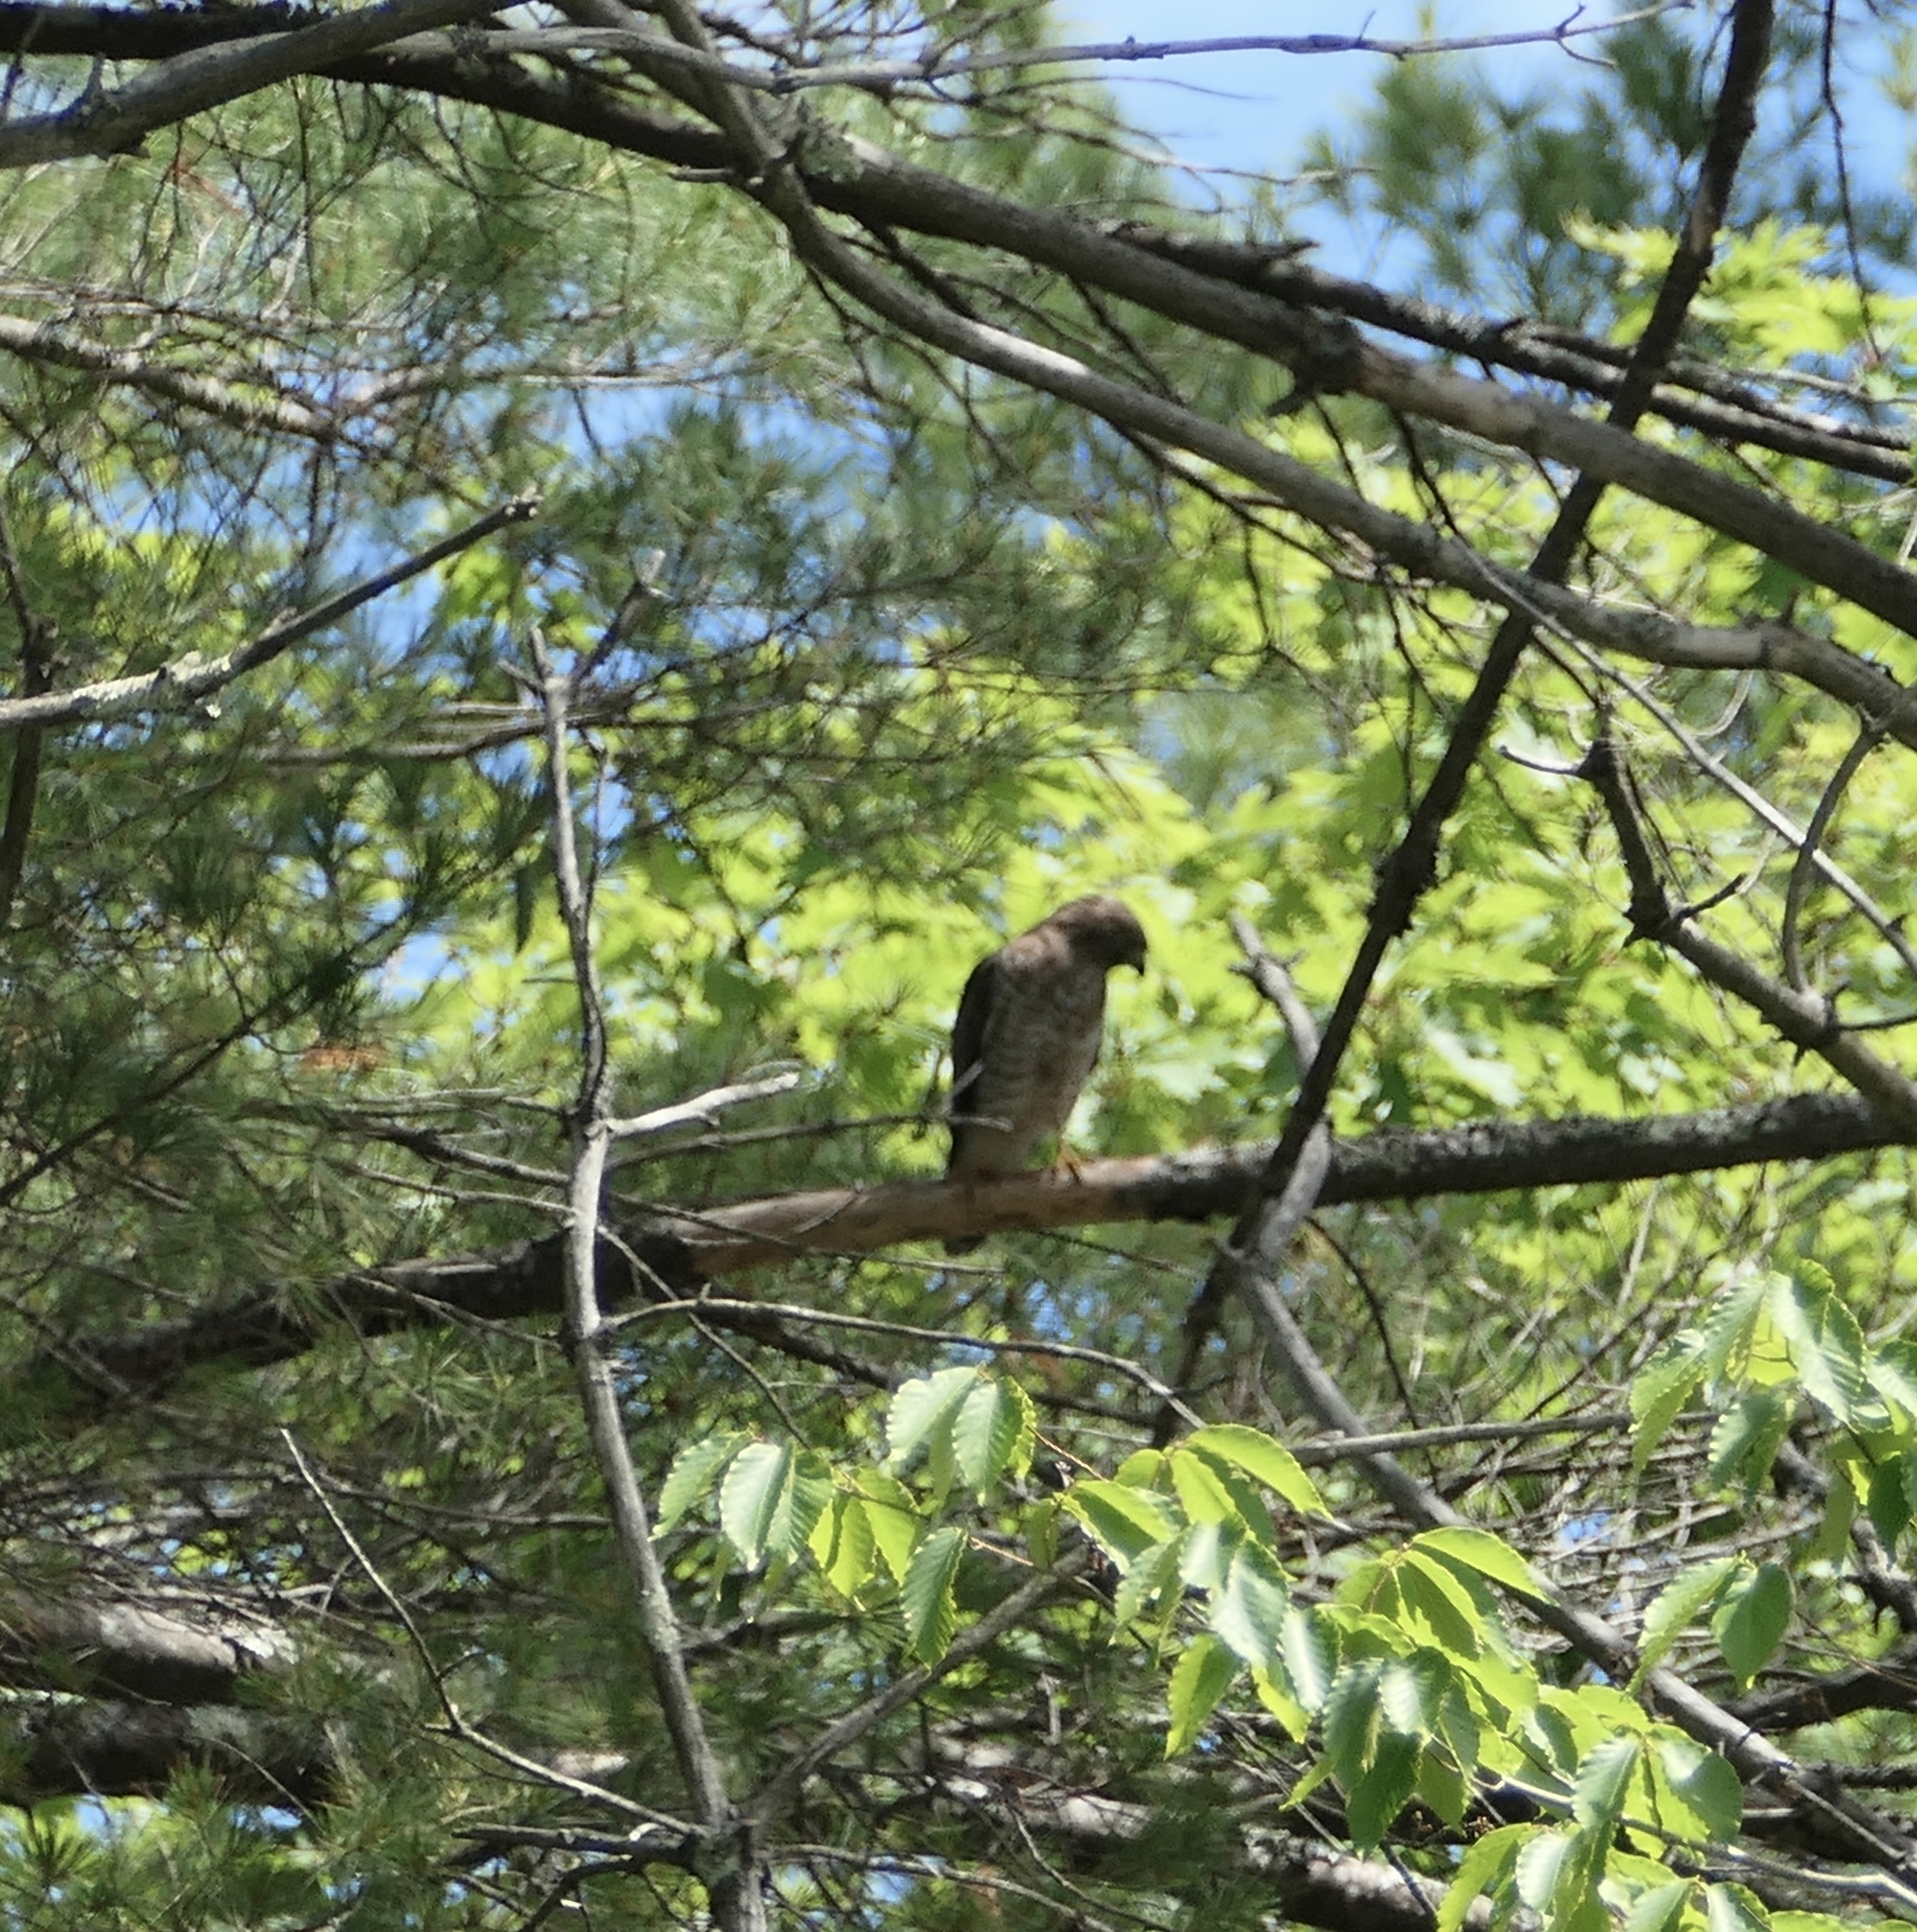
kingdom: Animalia
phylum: Chordata
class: Aves
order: Accipitriformes
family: Accipitridae
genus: Buteo
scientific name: Buteo platypterus
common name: Broad-winged hawk
